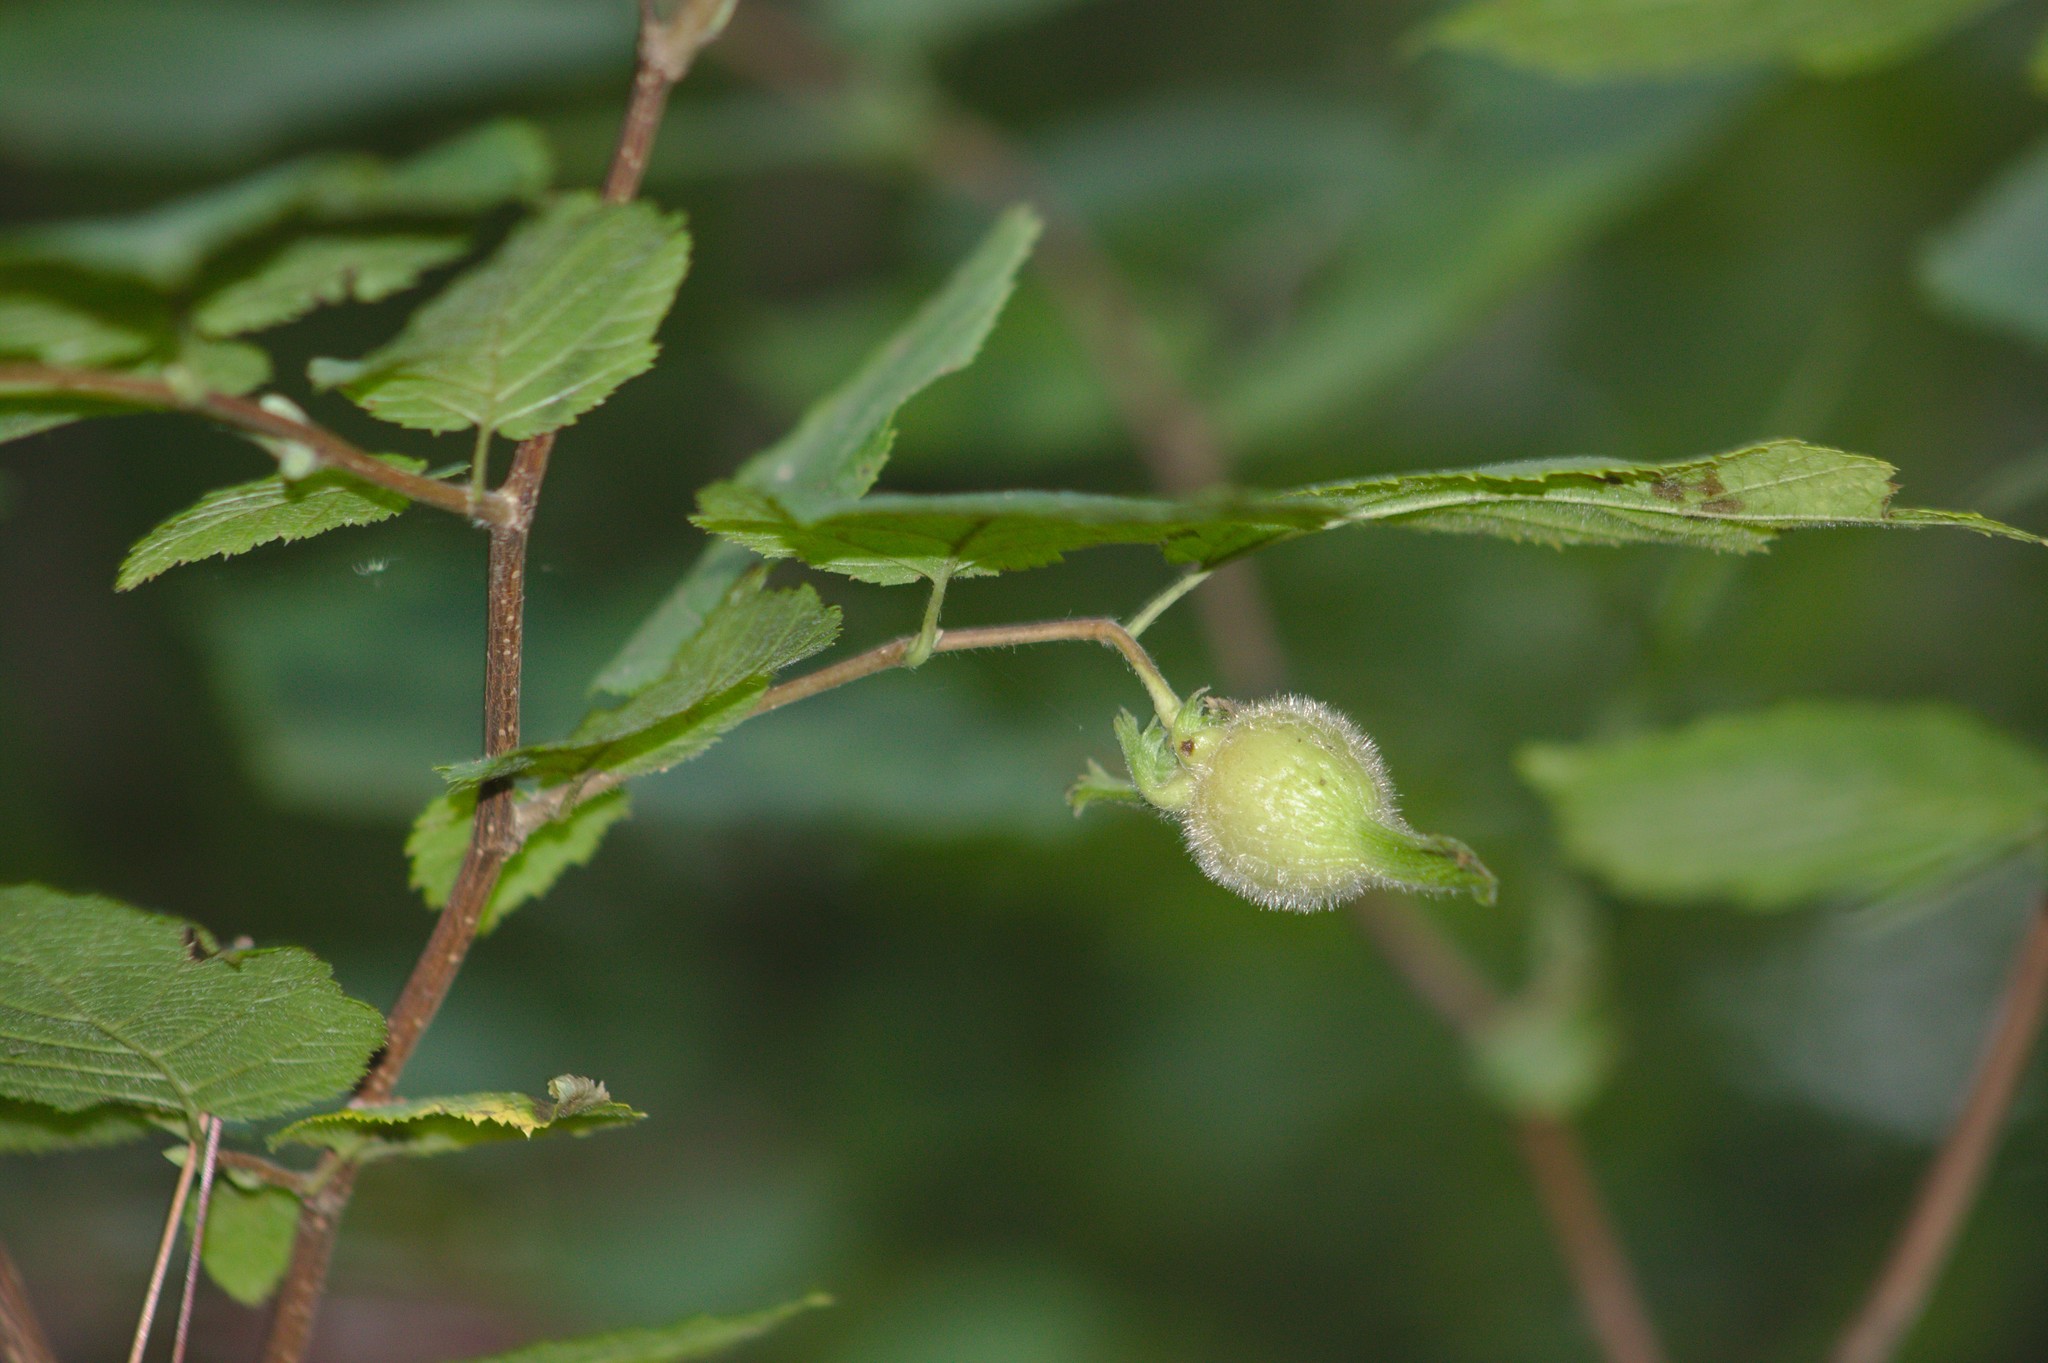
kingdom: Plantae
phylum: Tracheophyta
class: Magnoliopsida
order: Fagales
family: Betulaceae
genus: Corylus
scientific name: Corylus cornuta
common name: Beaked hazel
